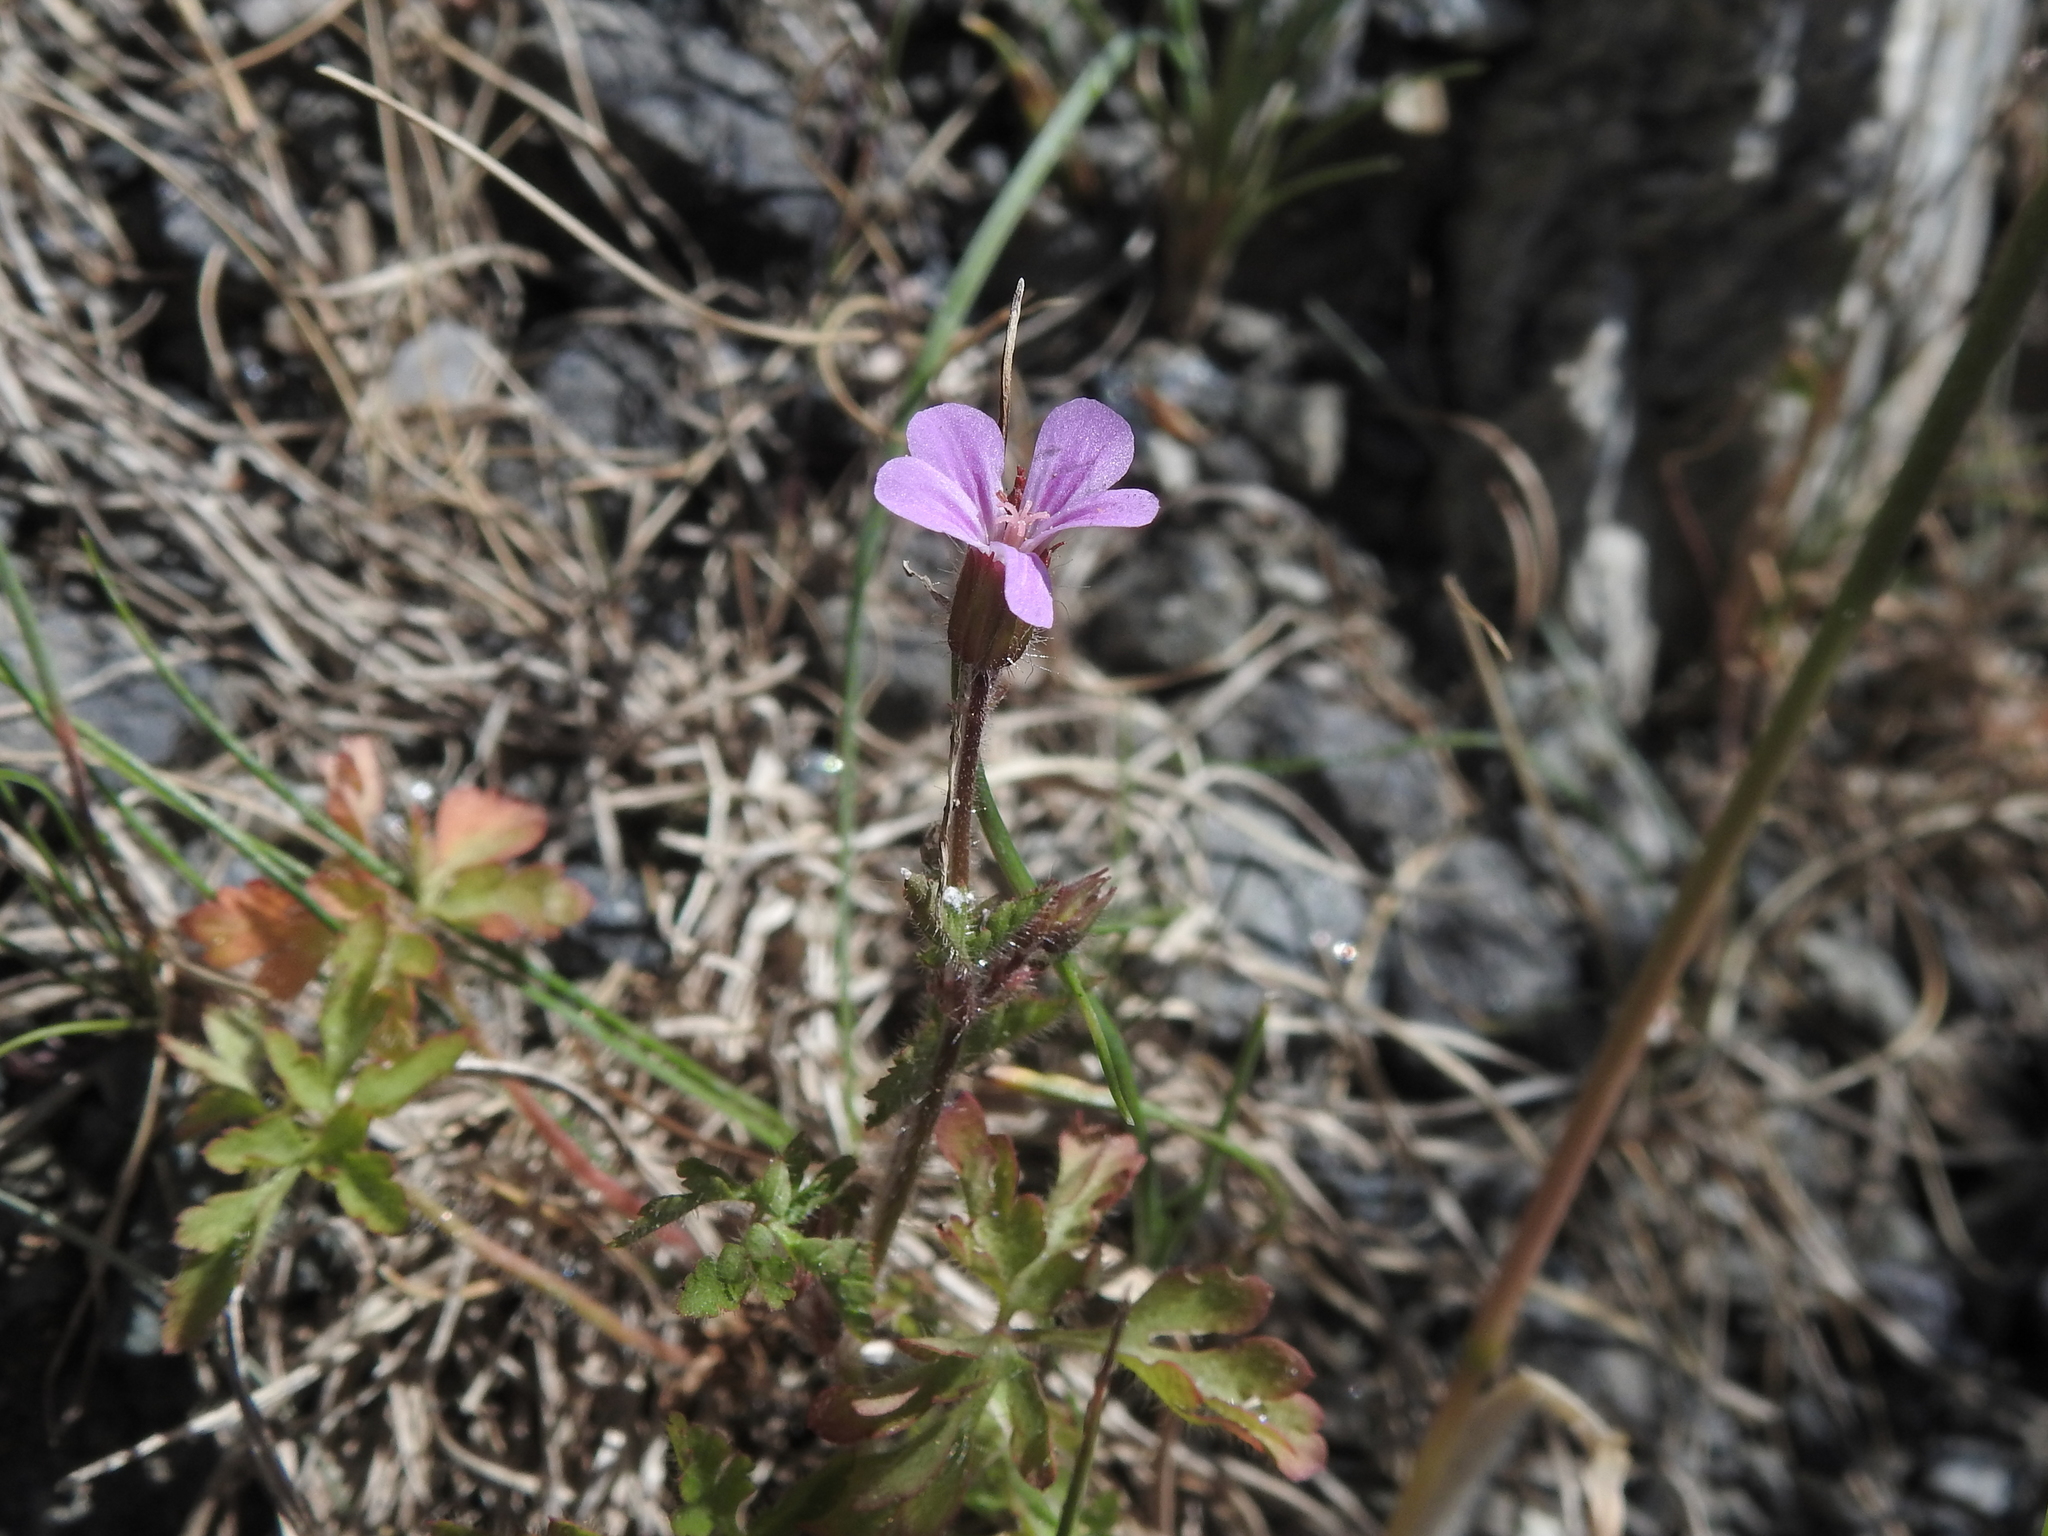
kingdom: Plantae
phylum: Tracheophyta
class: Magnoliopsida
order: Geraniales
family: Geraniaceae
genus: Geranium
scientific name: Geranium robertianum
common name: Herb-robert
